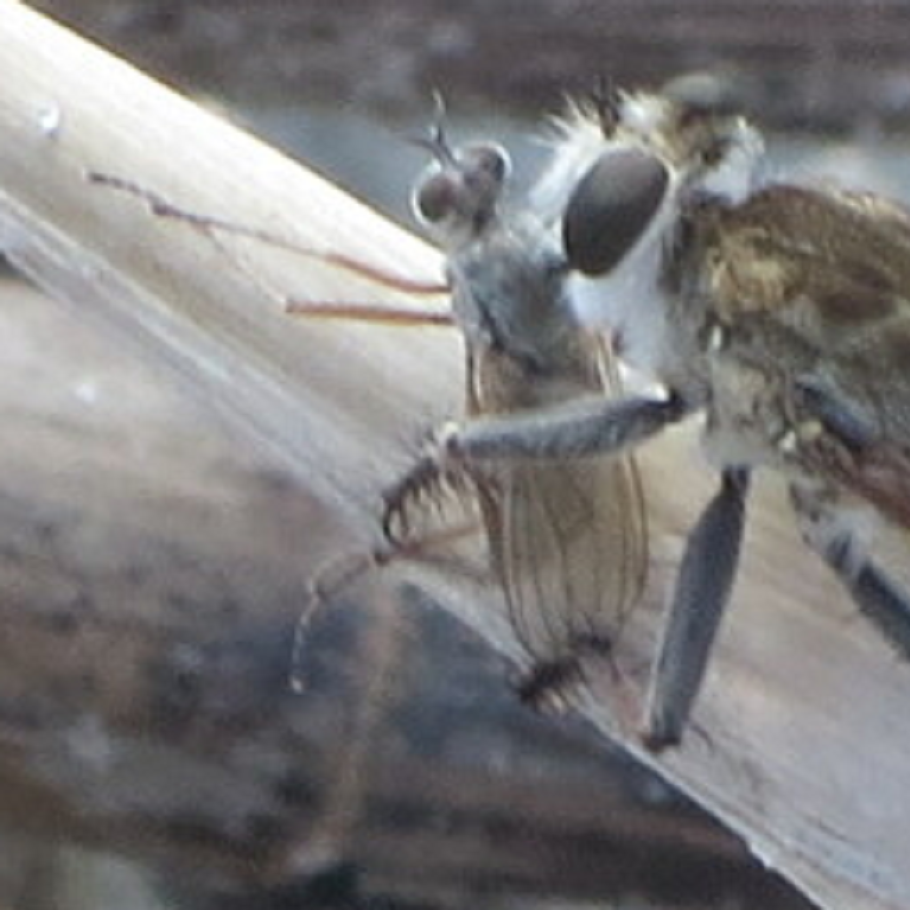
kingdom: Animalia
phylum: Arthropoda
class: Insecta
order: Diptera
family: Dolichopodidae
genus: Hypocharassus
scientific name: Hypocharassus pruinosus
